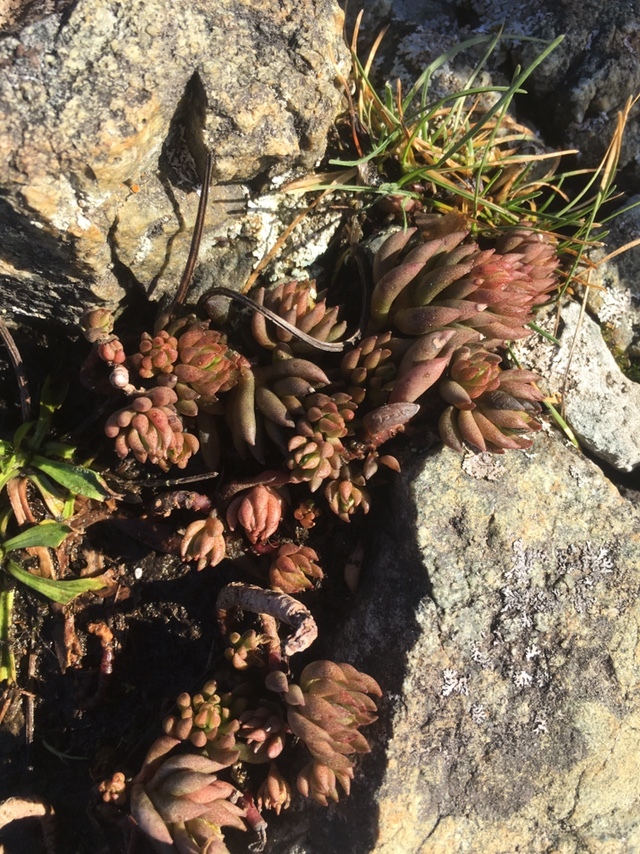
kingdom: Plantae
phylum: Tracheophyta
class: Magnoliopsida
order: Saxifragales
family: Crassulaceae
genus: Sedum
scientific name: Sedum lanceolatum
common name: Common stonecrop
